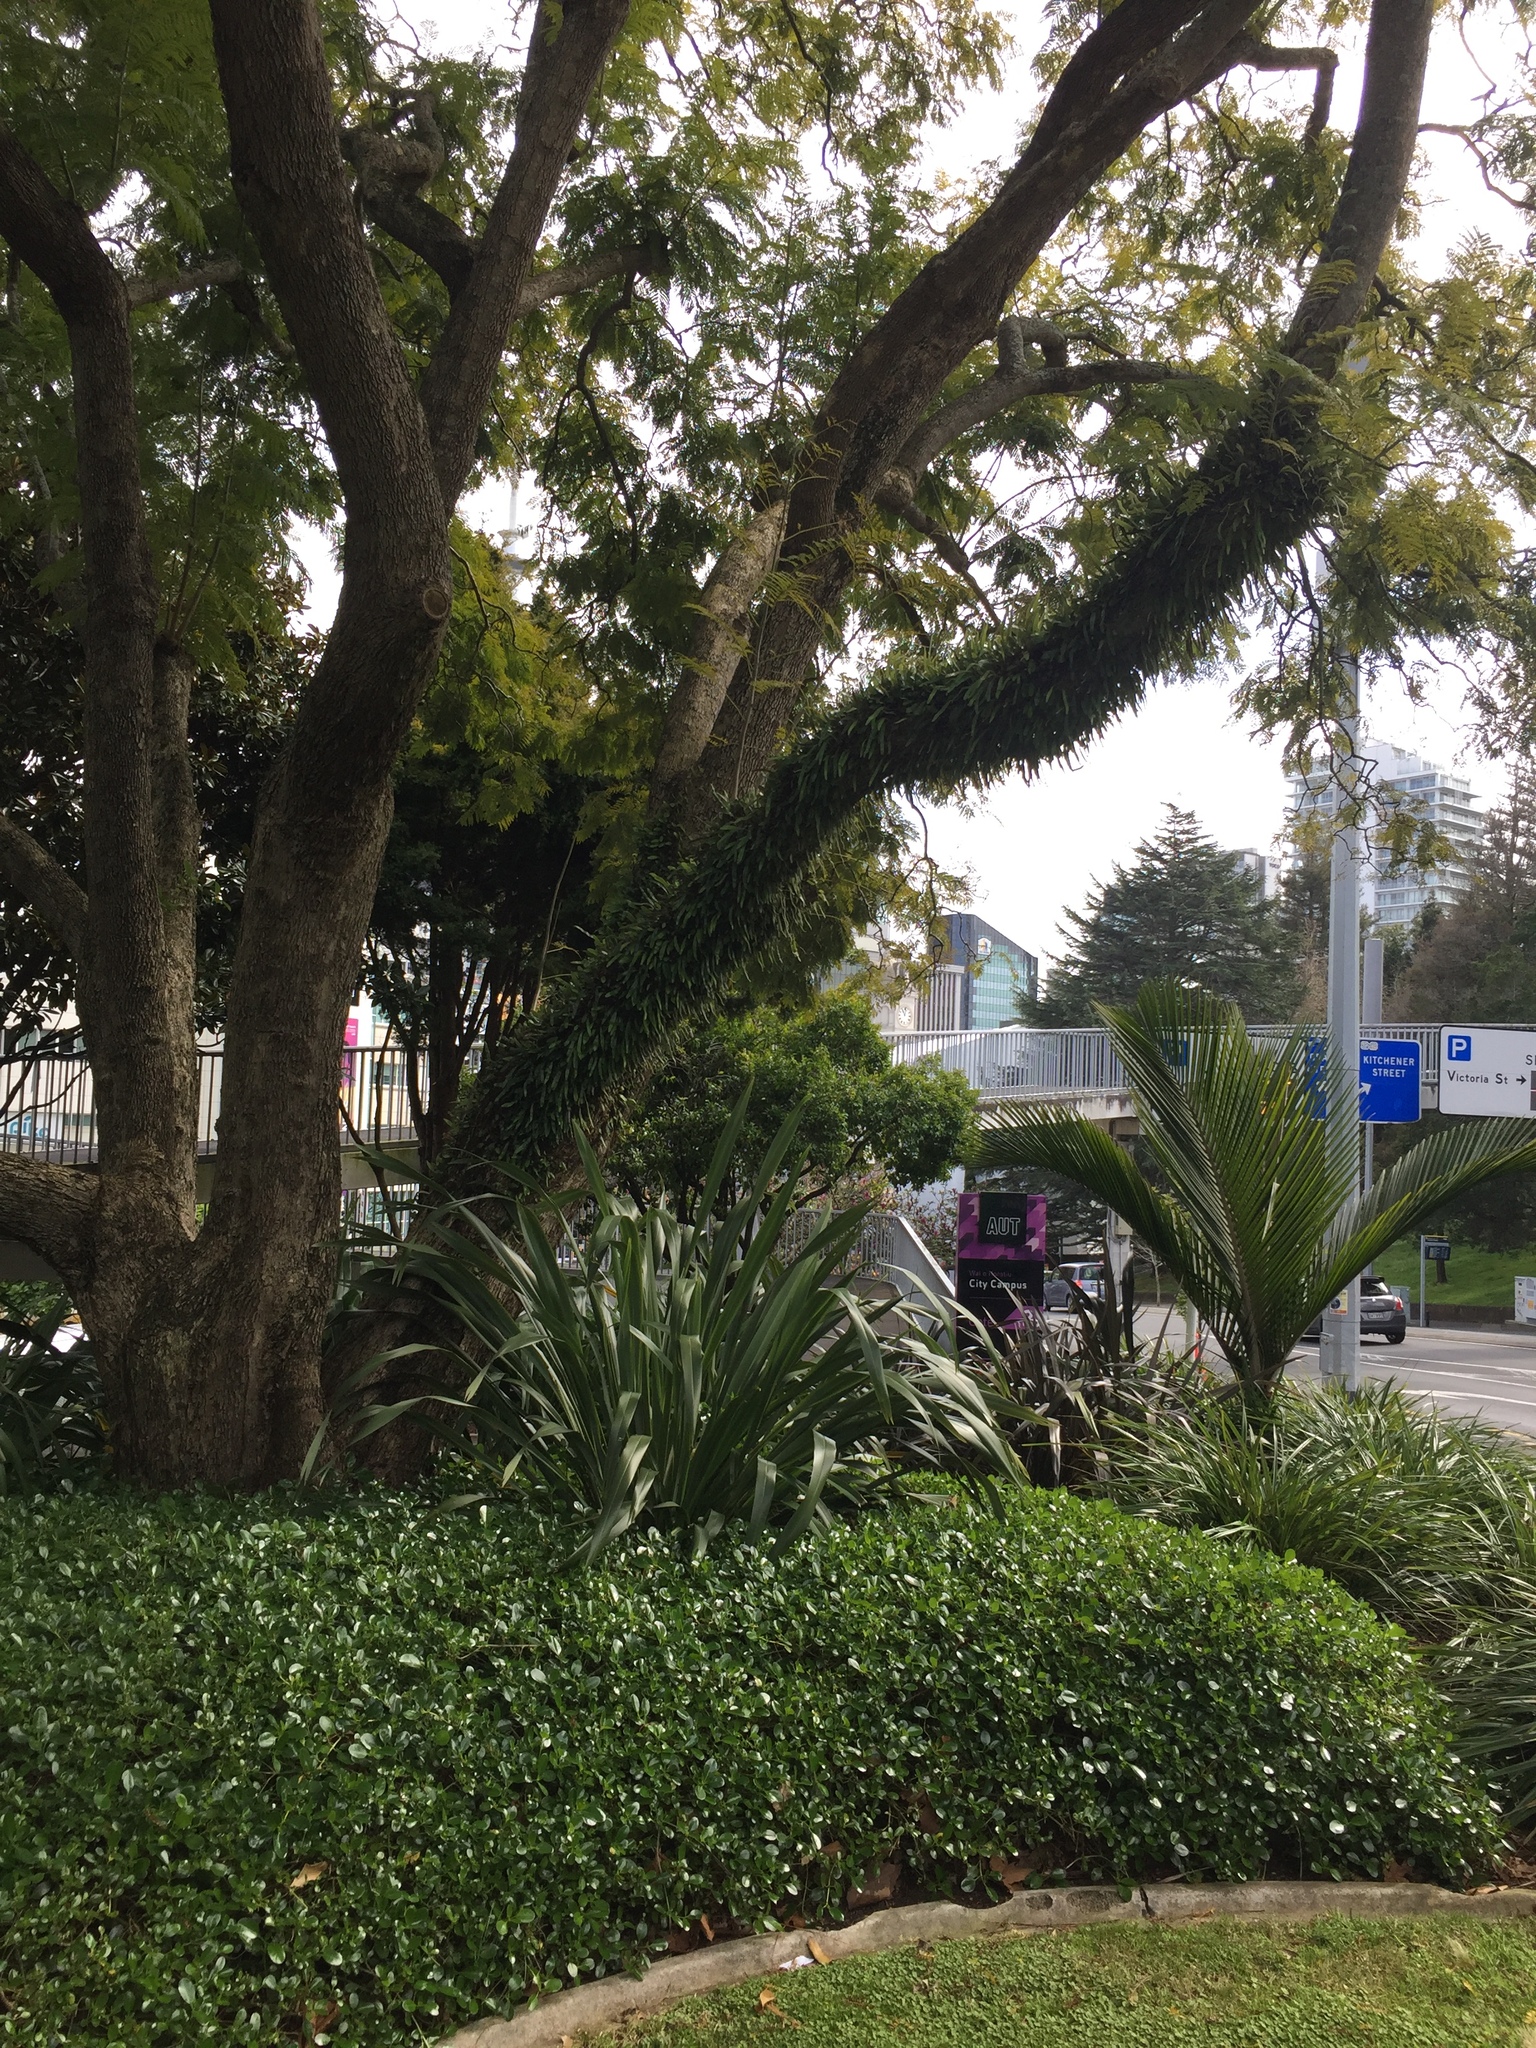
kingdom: Animalia
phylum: Arthropoda
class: Insecta
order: Hemiptera
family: Aphididae
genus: Idiopterus
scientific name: Idiopterus nephrelepidis
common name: Fern aphid
